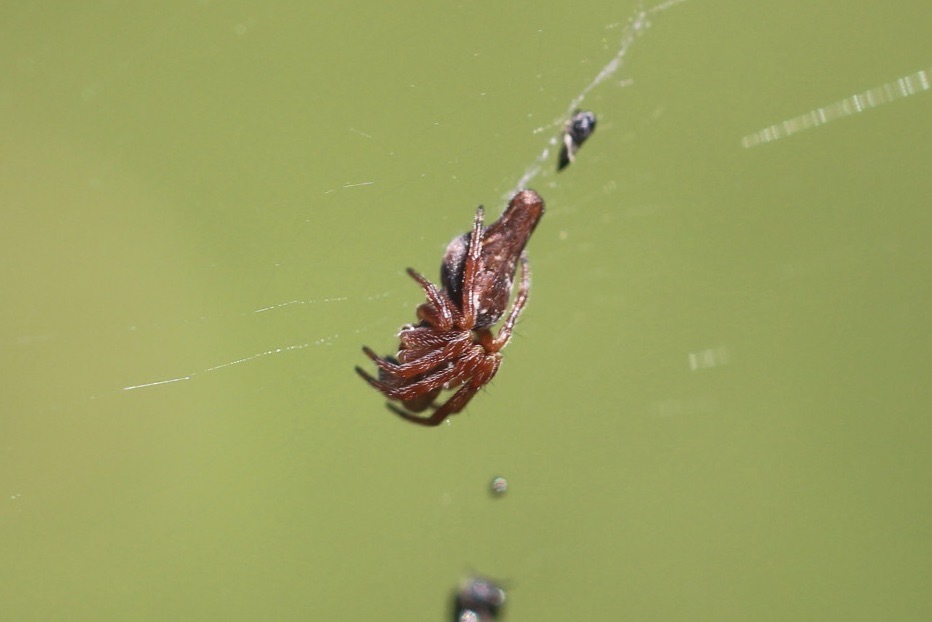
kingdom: Animalia
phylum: Arthropoda
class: Arachnida
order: Araneae
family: Araneidae
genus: Cyclosa
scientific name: Cyclosa conica
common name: Conical trashline orbweaver
